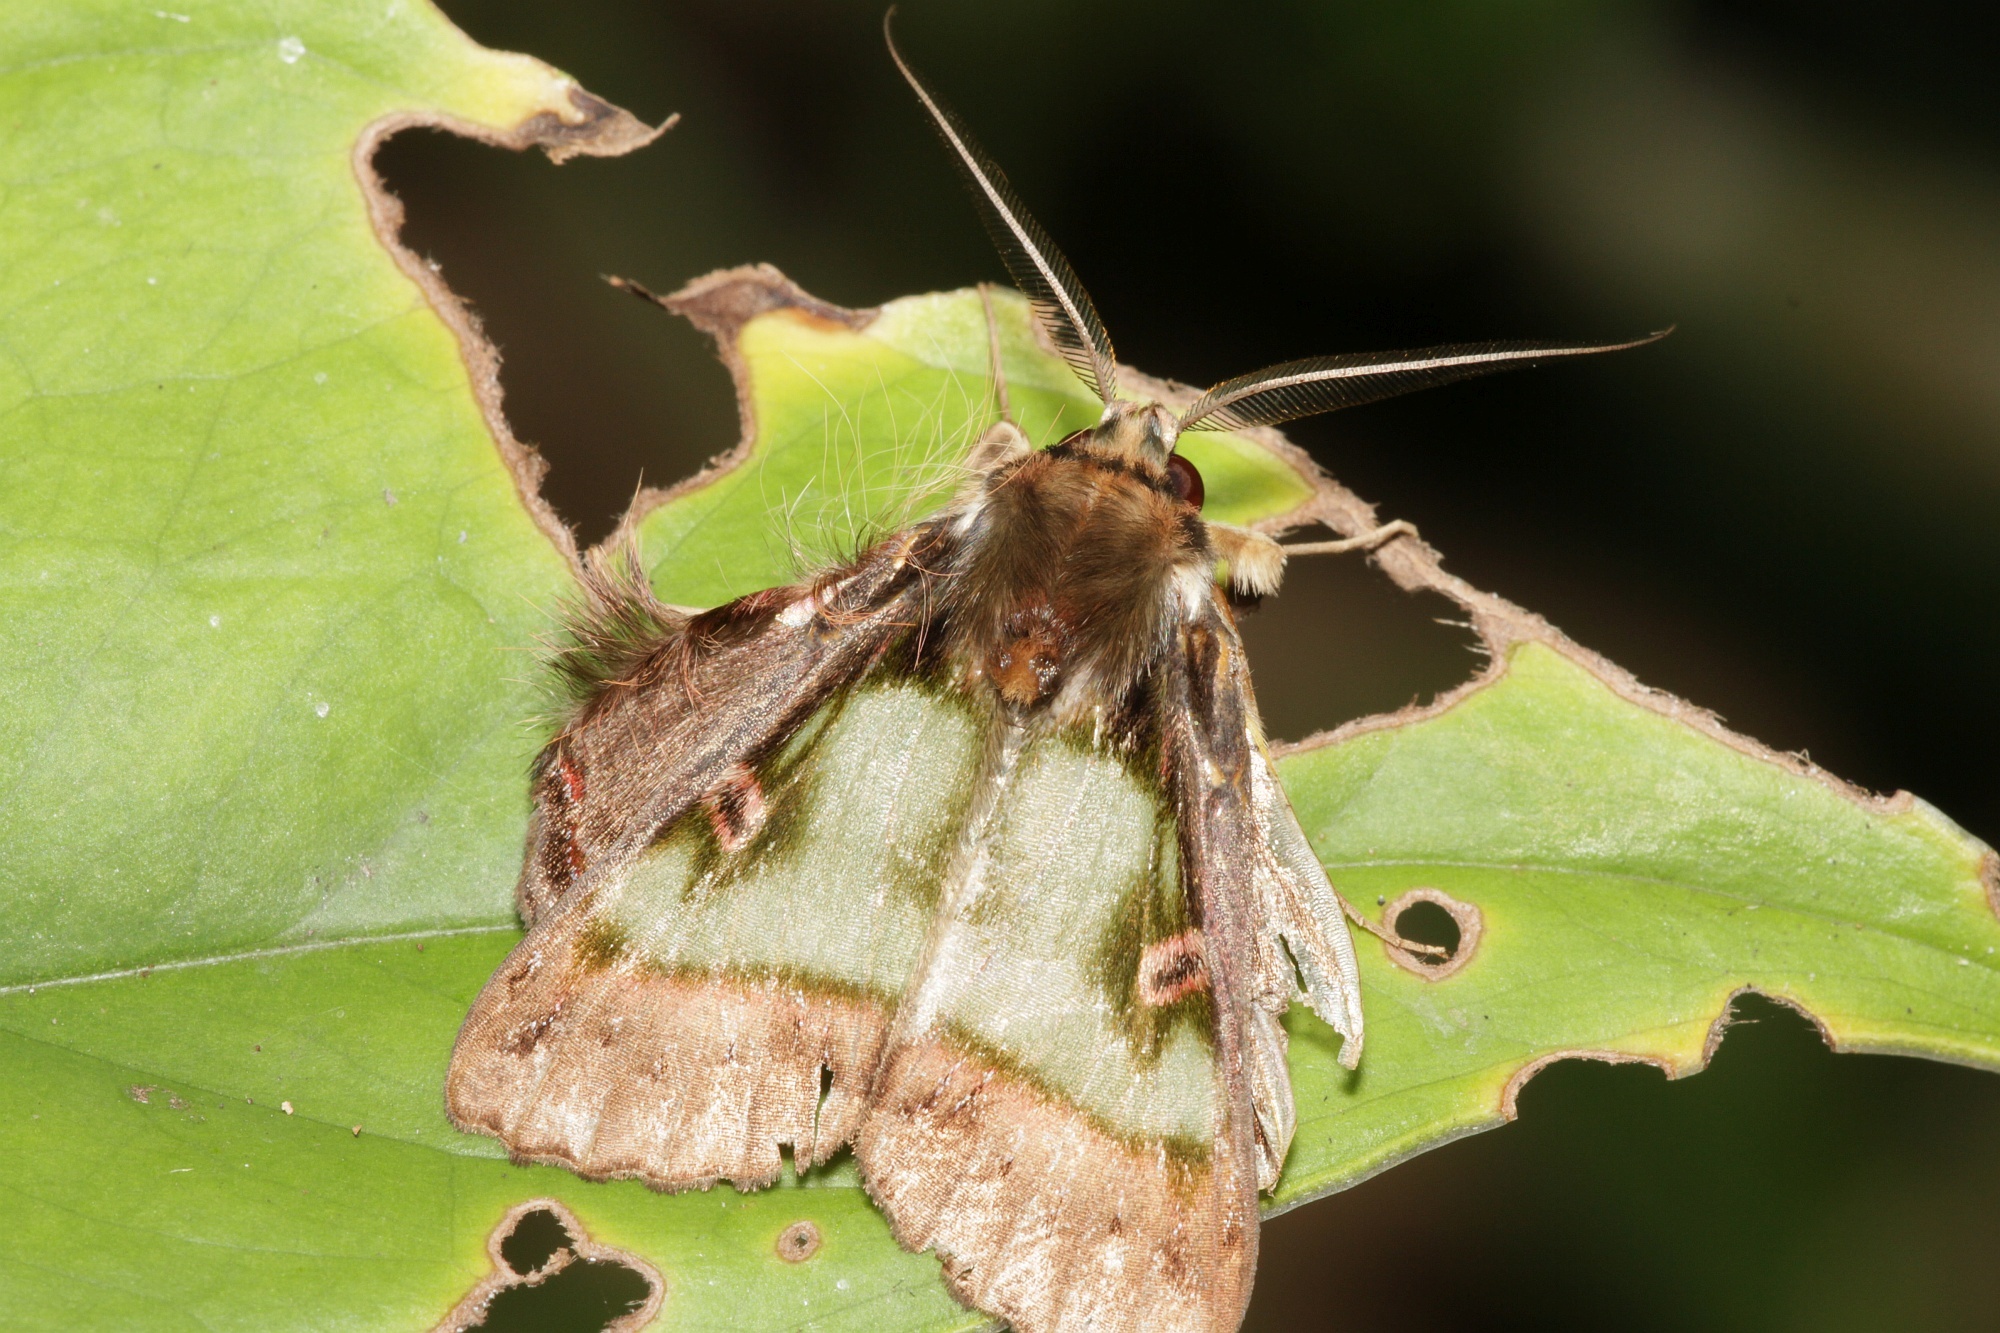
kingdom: Animalia
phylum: Arthropoda
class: Insecta
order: Lepidoptera
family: Erebidae
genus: Ceroctena
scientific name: Ceroctena amynta
